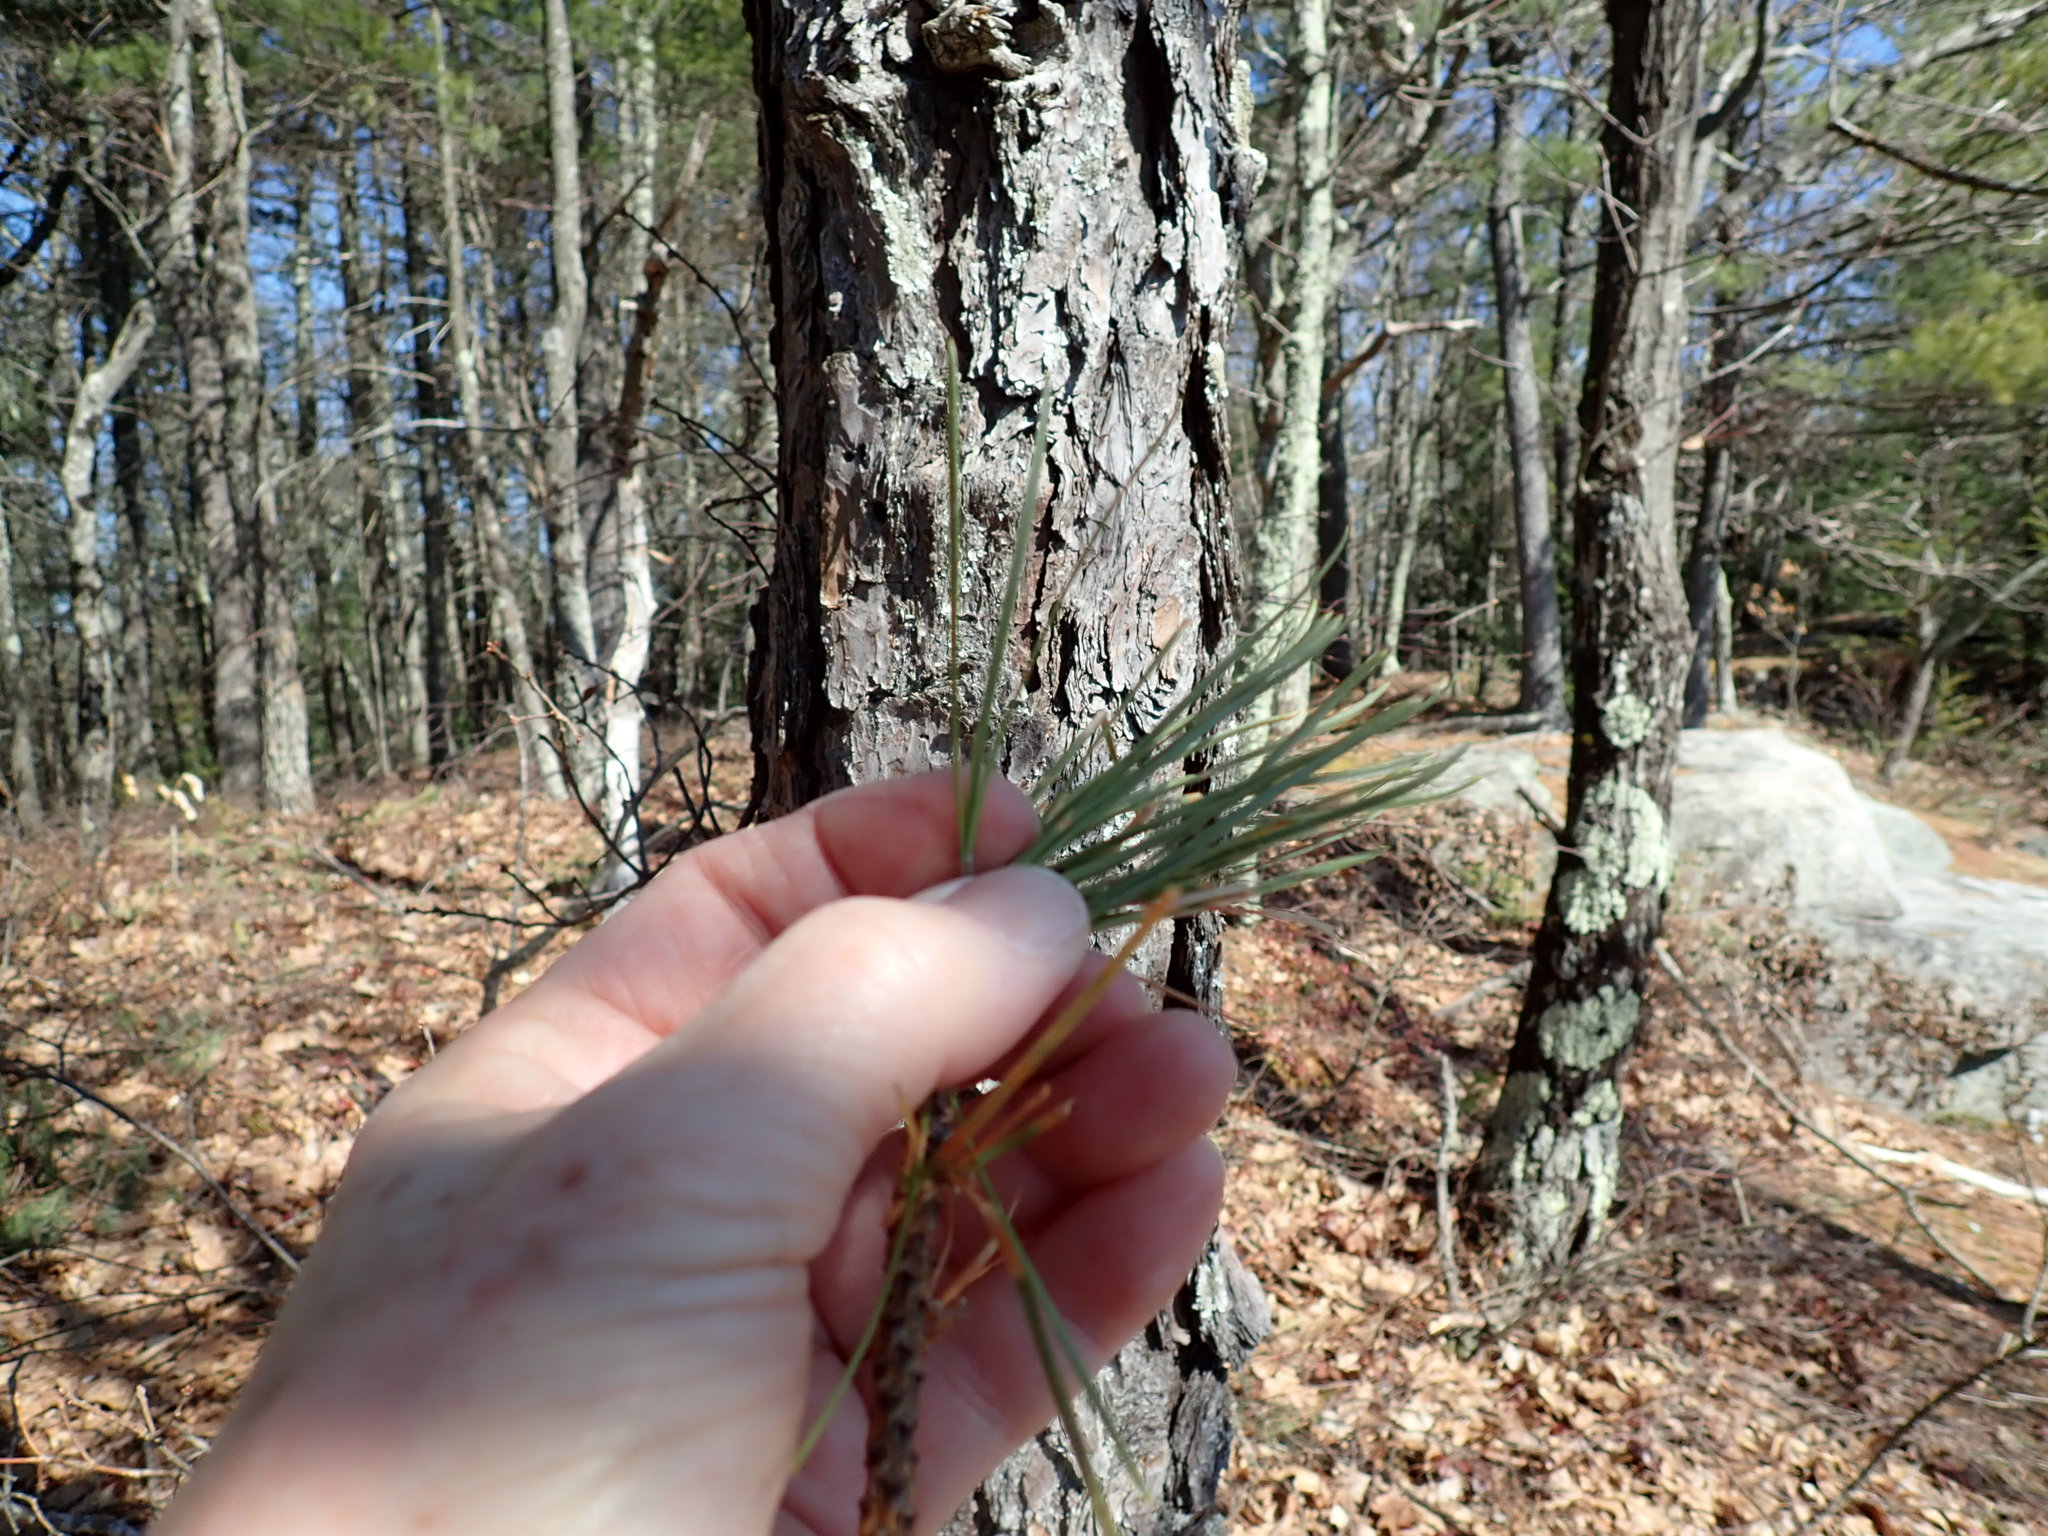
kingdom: Plantae
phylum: Tracheophyta
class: Pinopsida
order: Pinales
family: Pinaceae
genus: Pinus
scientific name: Pinus rigida
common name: Pitch pine
